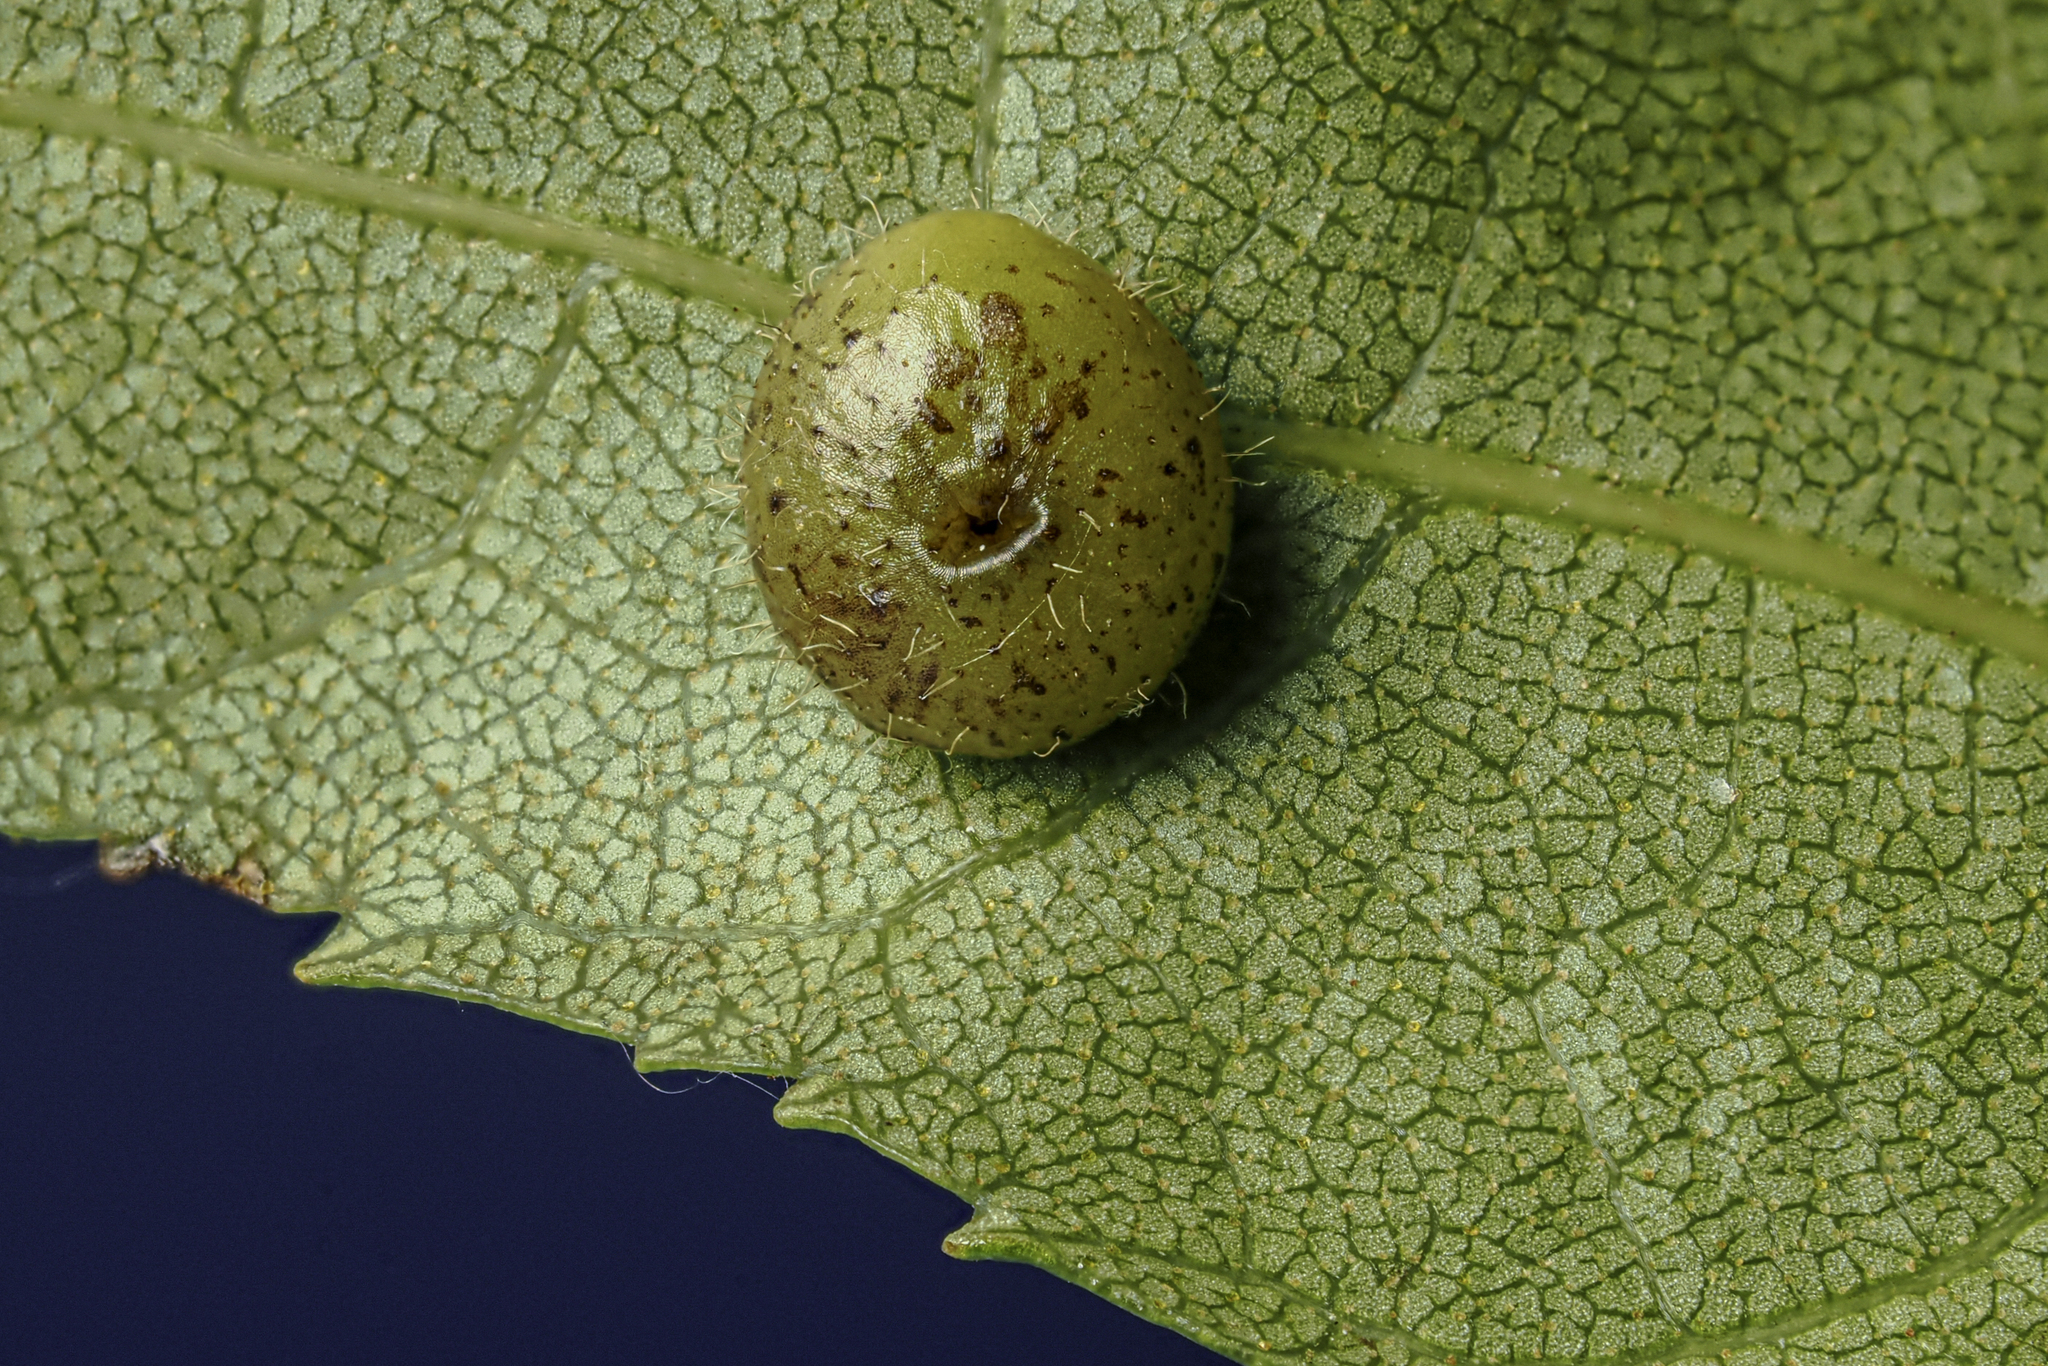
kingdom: Animalia
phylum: Arthropoda
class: Insecta
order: Diptera
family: Cecidomyiidae
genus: Caryomyia
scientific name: Caryomyia thompsoni
